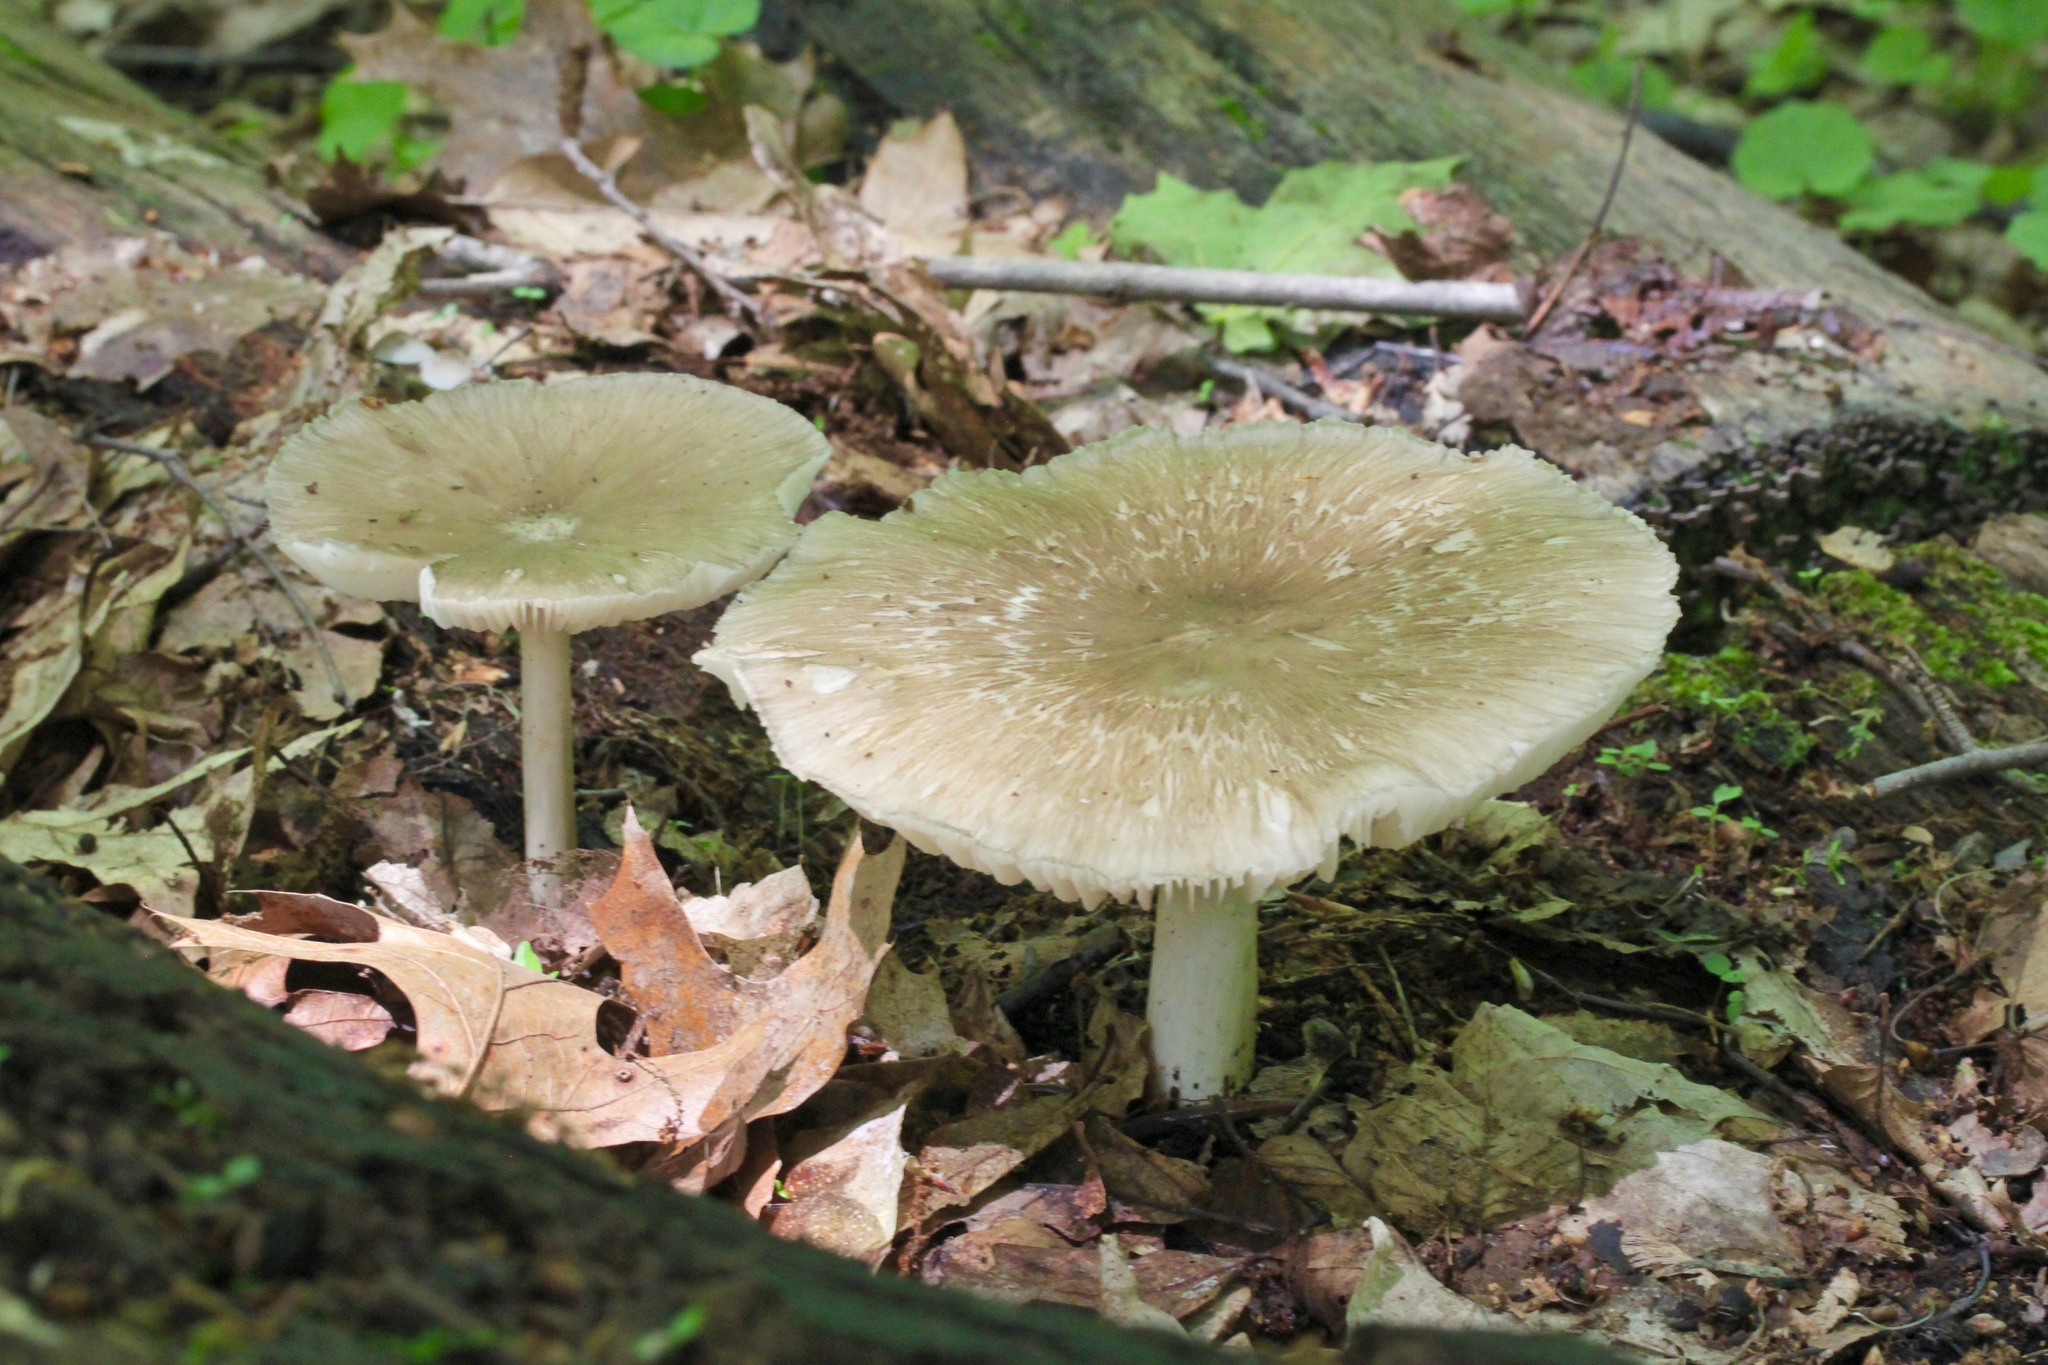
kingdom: Fungi
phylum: Basidiomycota
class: Agaricomycetes
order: Agaricales
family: Tricholomataceae
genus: Megacollybia
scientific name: Megacollybia rodmanii
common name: Eastern american platterful mushroom
